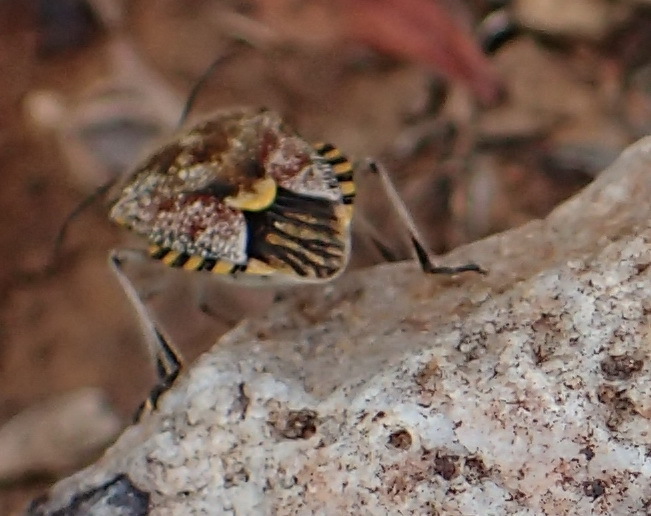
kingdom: Animalia
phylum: Arthropoda
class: Insecta
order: Hemiptera
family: Pentatomidae
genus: Agonoscelis
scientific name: Agonoscelis versicoloratus
